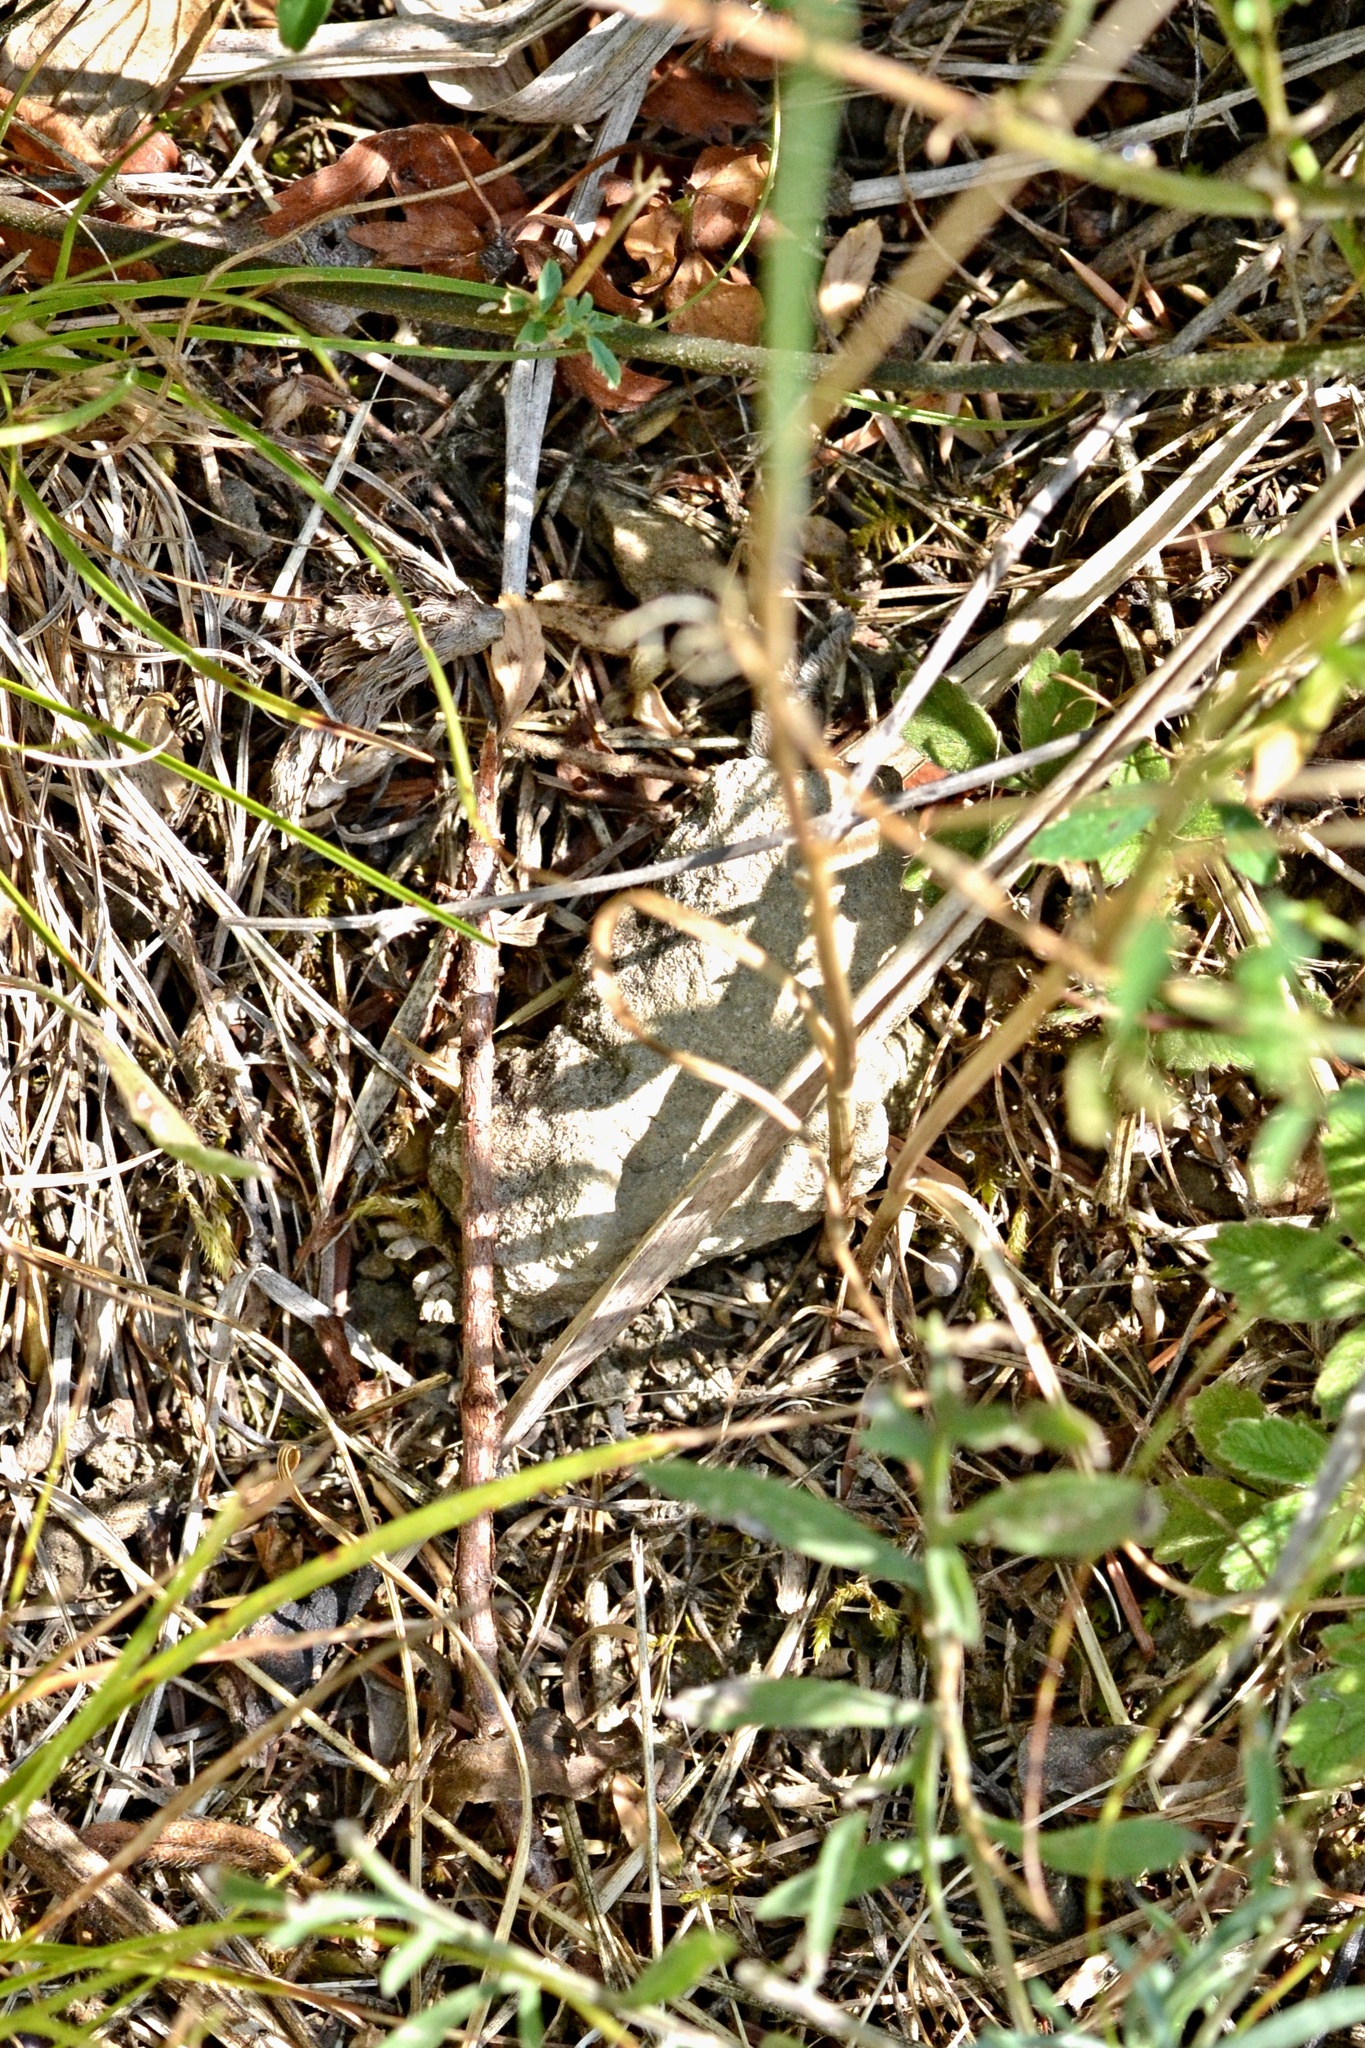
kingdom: Plantae
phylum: Tracheophyta
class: Liliopsida
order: Asparagales
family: Amaryllidaceae
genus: Allium
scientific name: Allium oleraceum
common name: Field garlic
